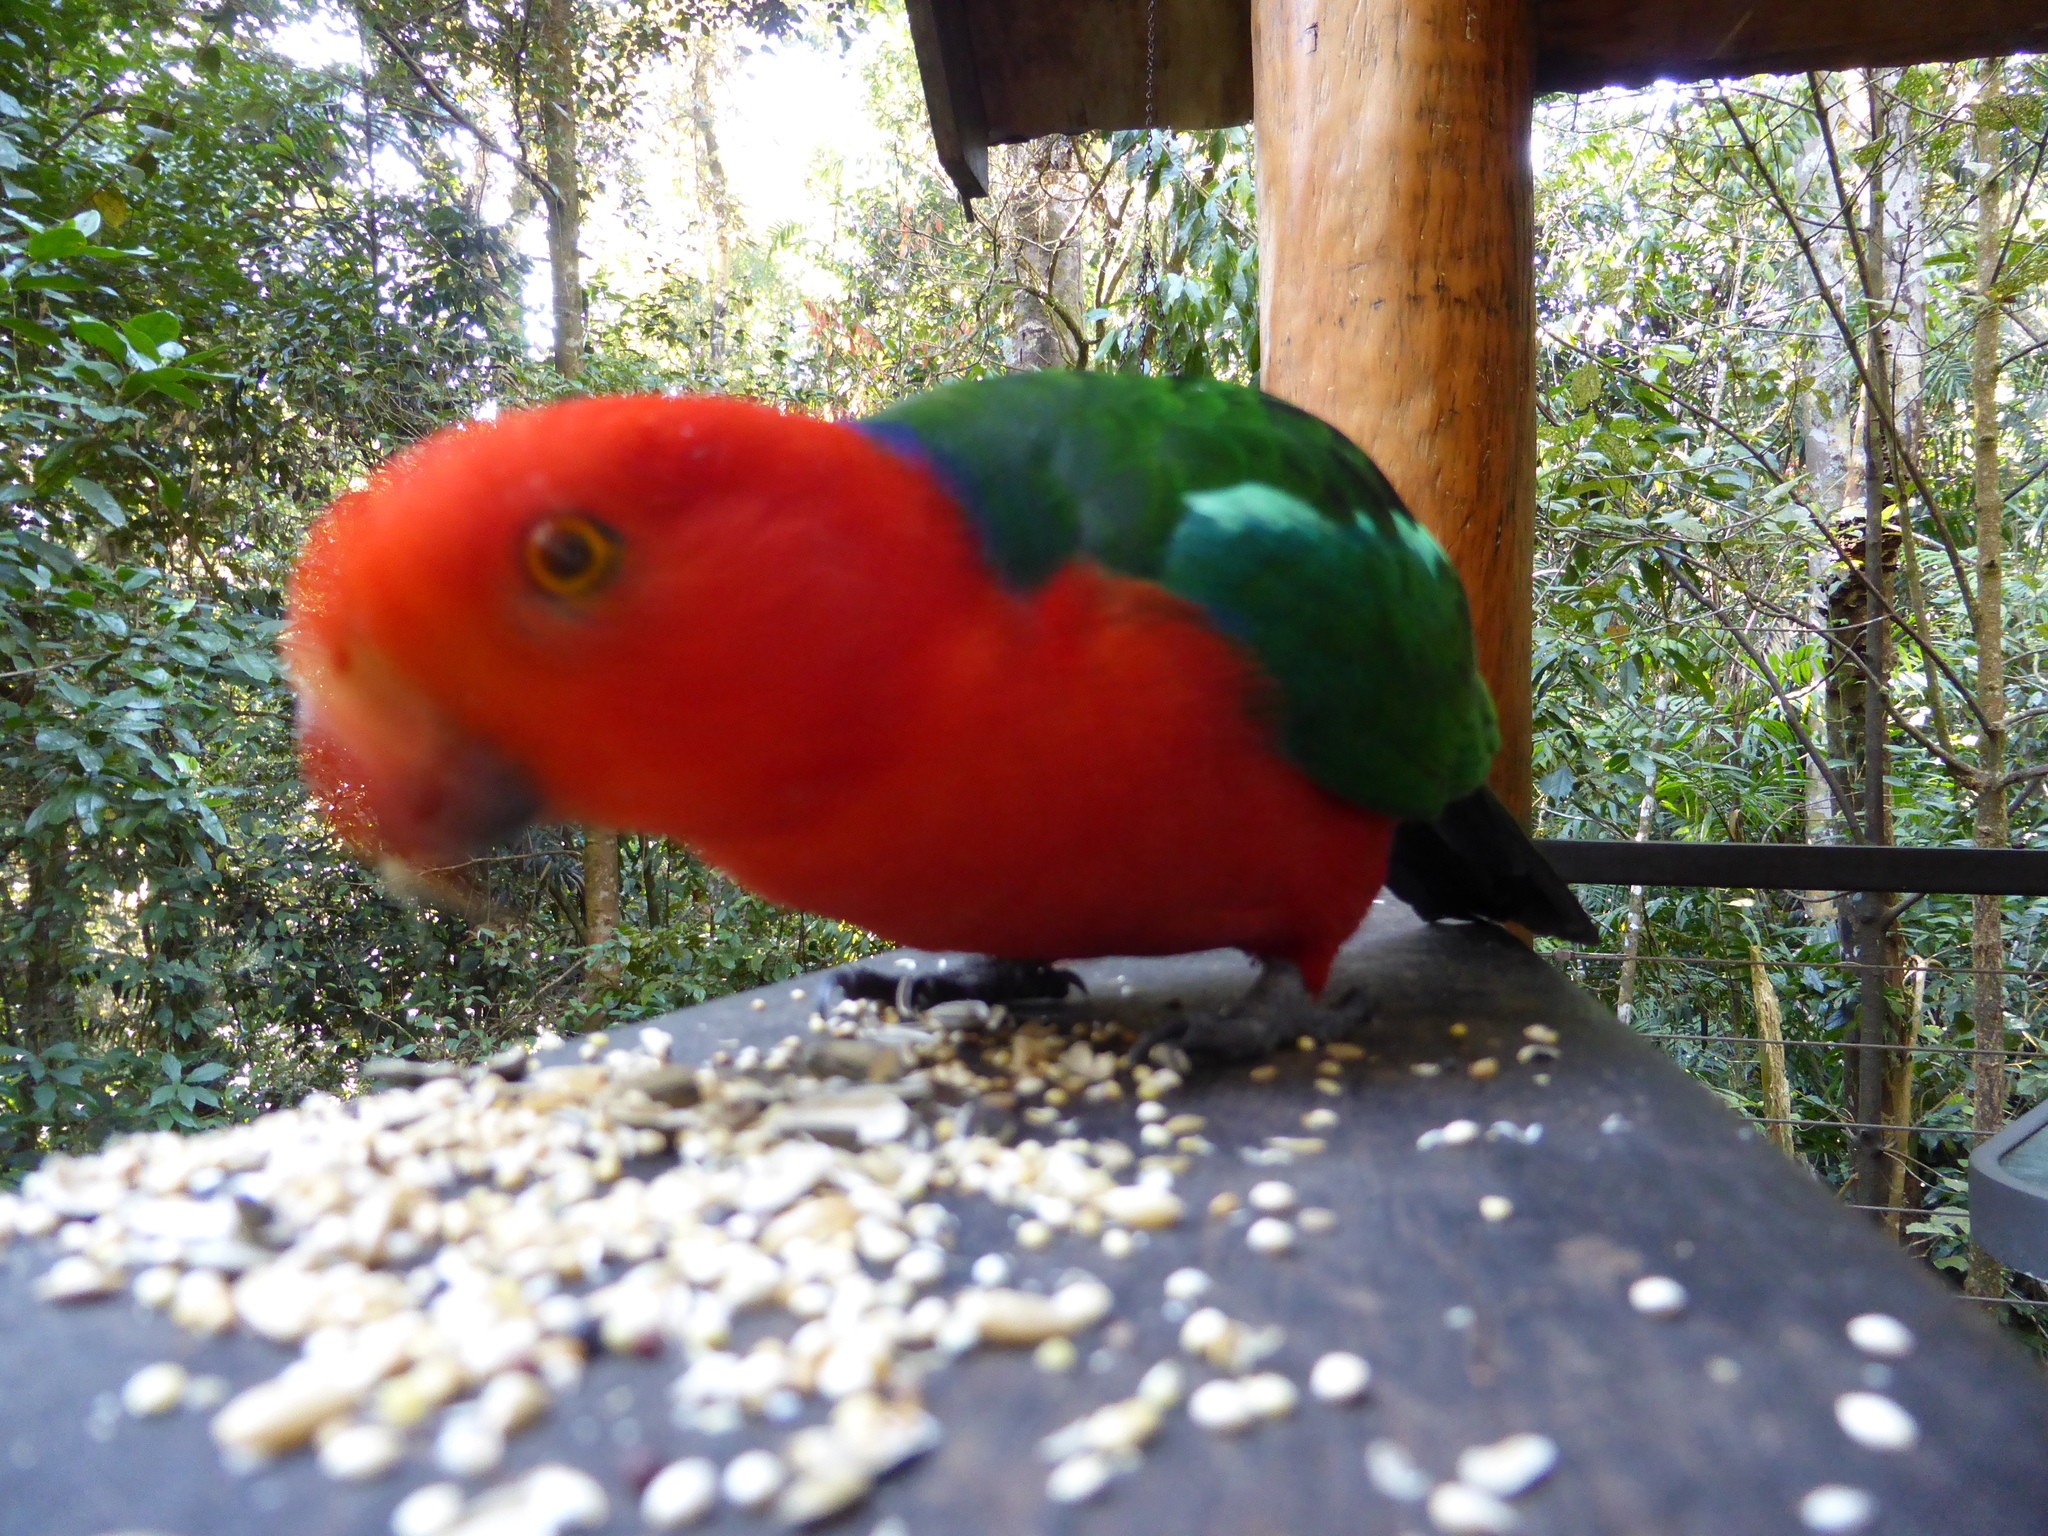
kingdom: Animalia
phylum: Chordata
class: Aves
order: Psittaciformes
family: Psittacidae
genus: Alisterus
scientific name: Alisterus scapularis
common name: Australian king parrot
